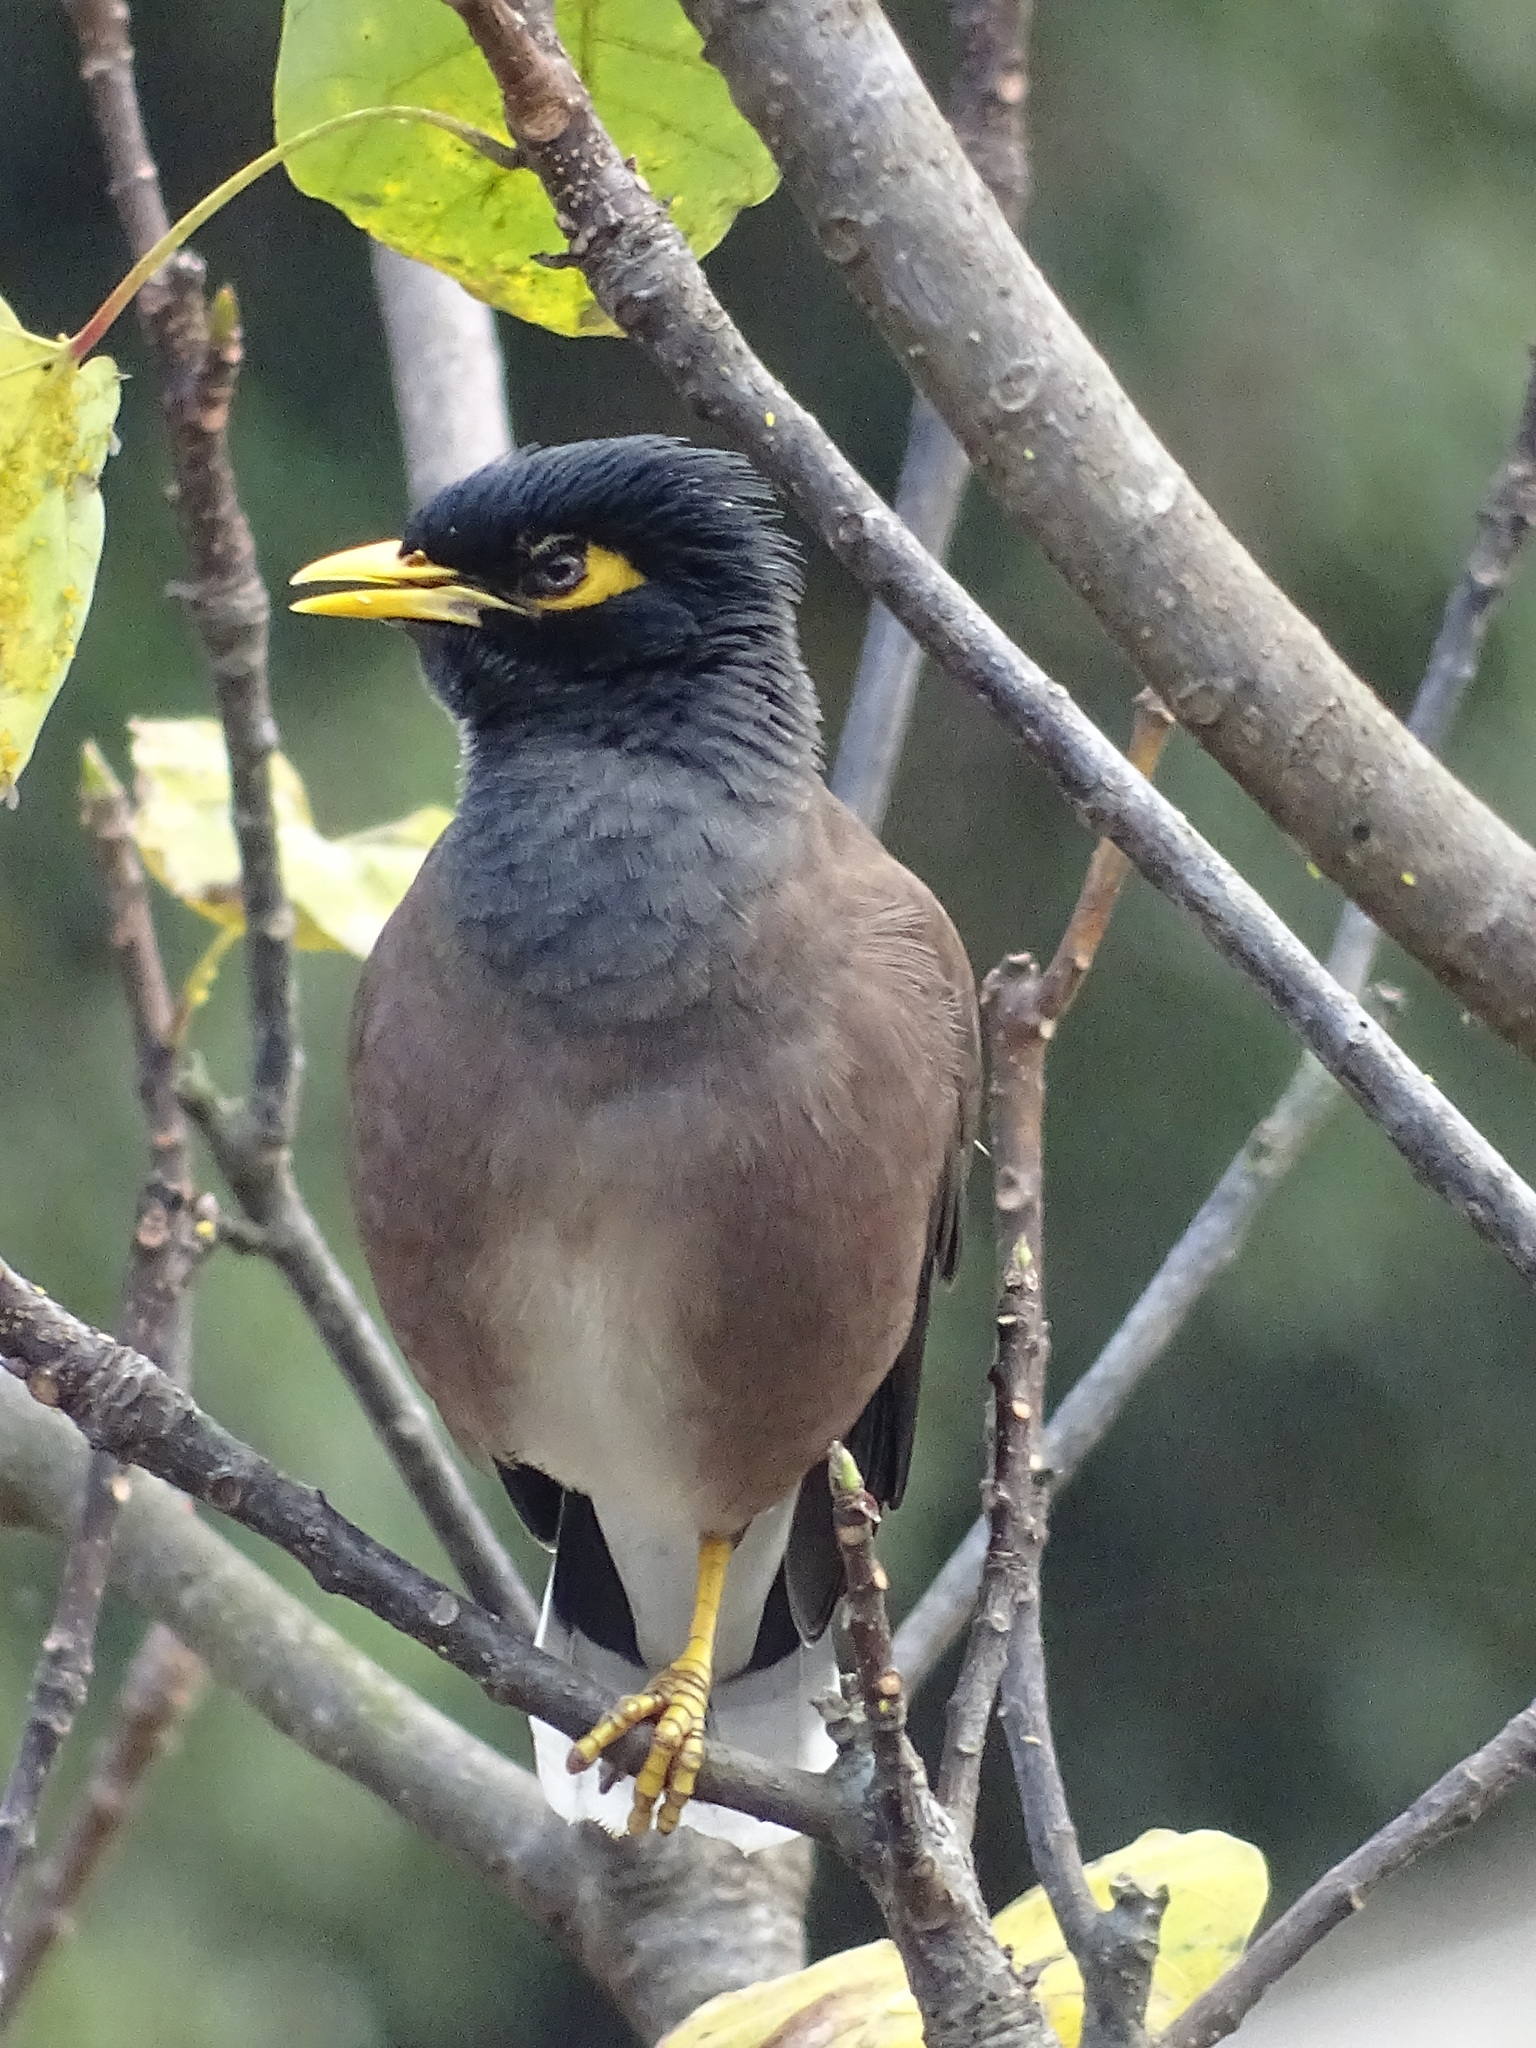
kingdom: Animalia
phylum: Chordata
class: Aves
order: Passeriformes
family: Sturnidae
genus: Acridotheres
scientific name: Acridotheres tristis
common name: Common myna
